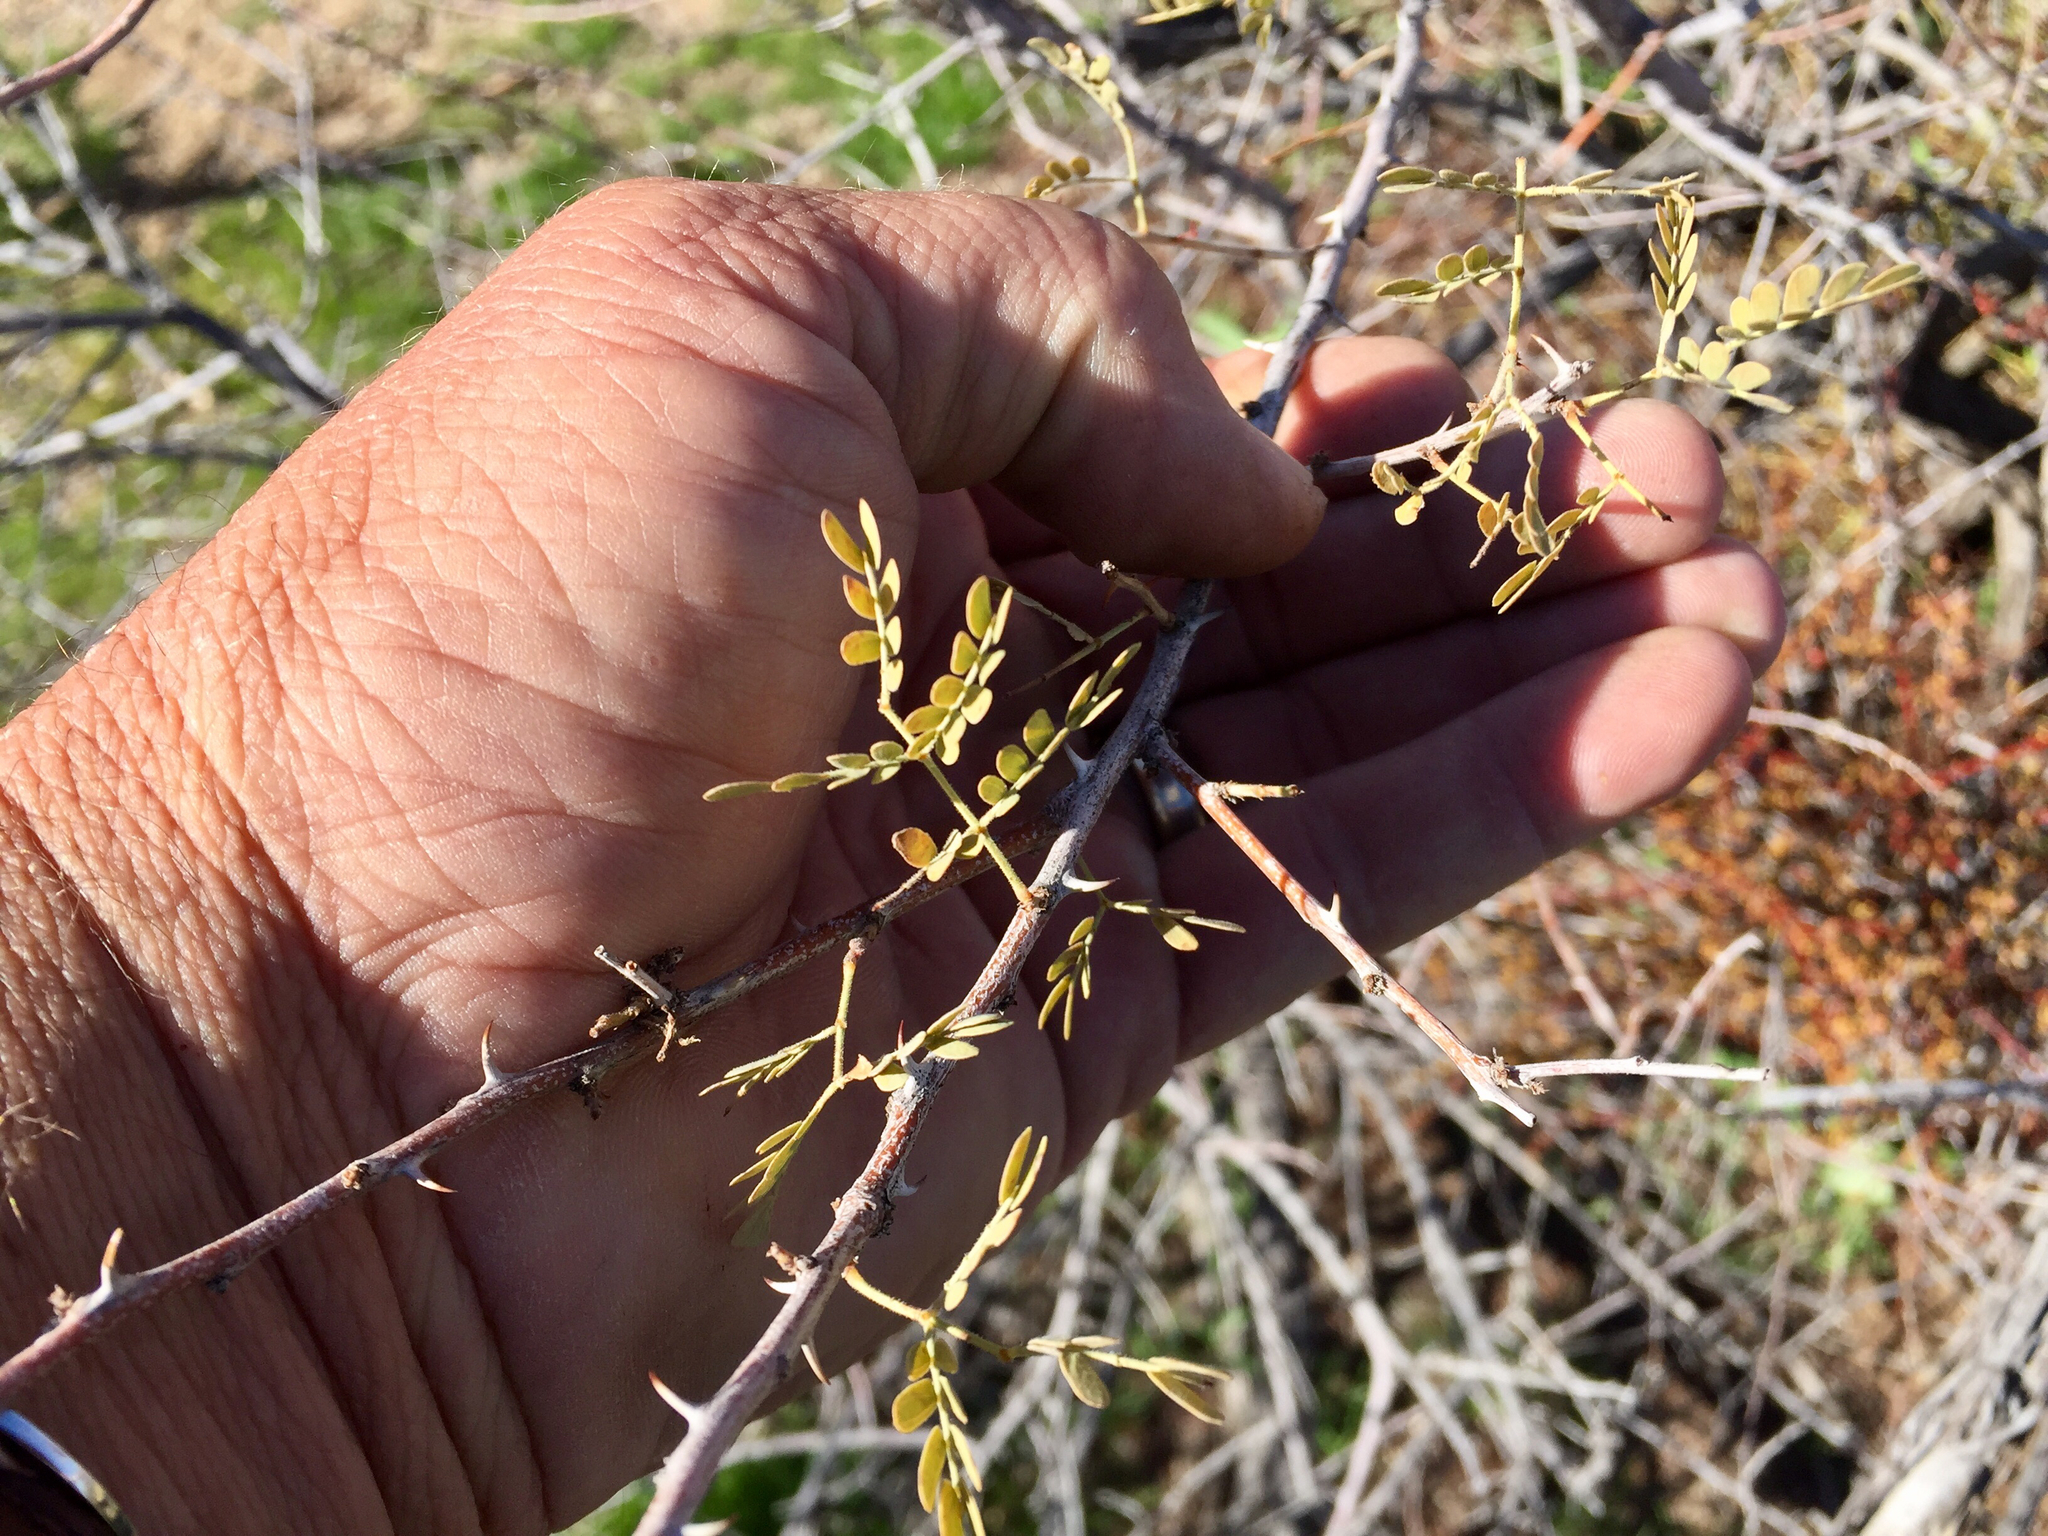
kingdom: Plantae
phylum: Tracheophyta
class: Magnoliopsida
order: Fabales
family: Fabaceae
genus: Senegalia
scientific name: Senegalia greggii
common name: Texas-mimosa
